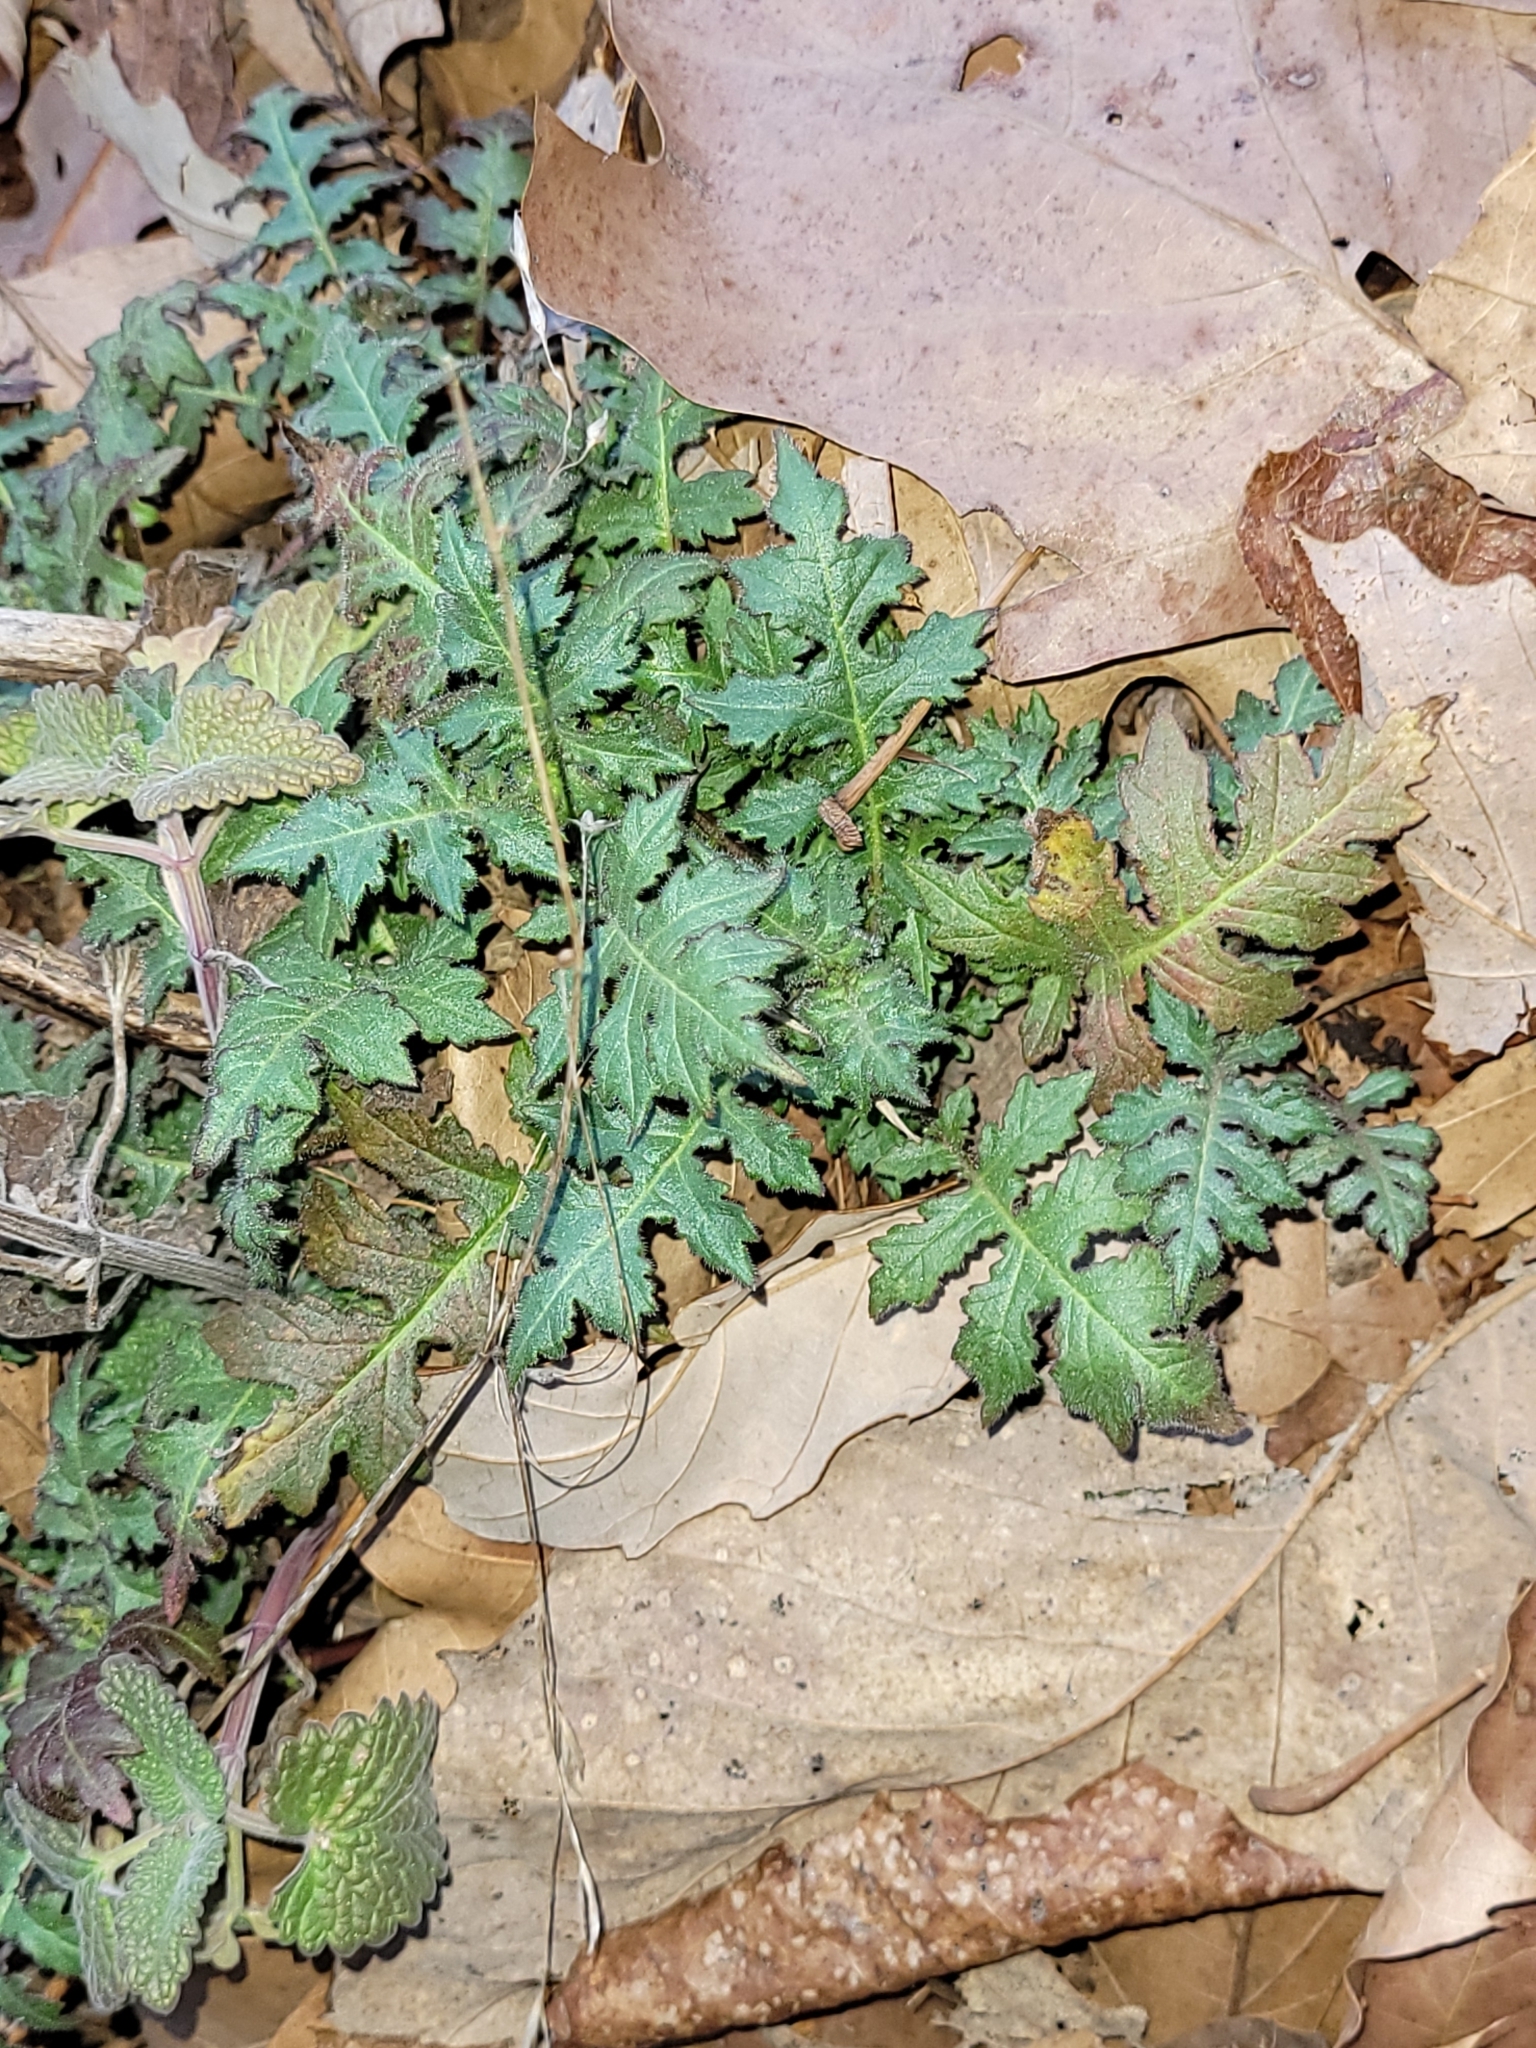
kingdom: Plantae
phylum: Tracheophyta
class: Magnoliopsida
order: Asterales
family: Asteraceae
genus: Polymnia
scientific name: Polymnia canadensis
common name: Pale-flowered leafcup
